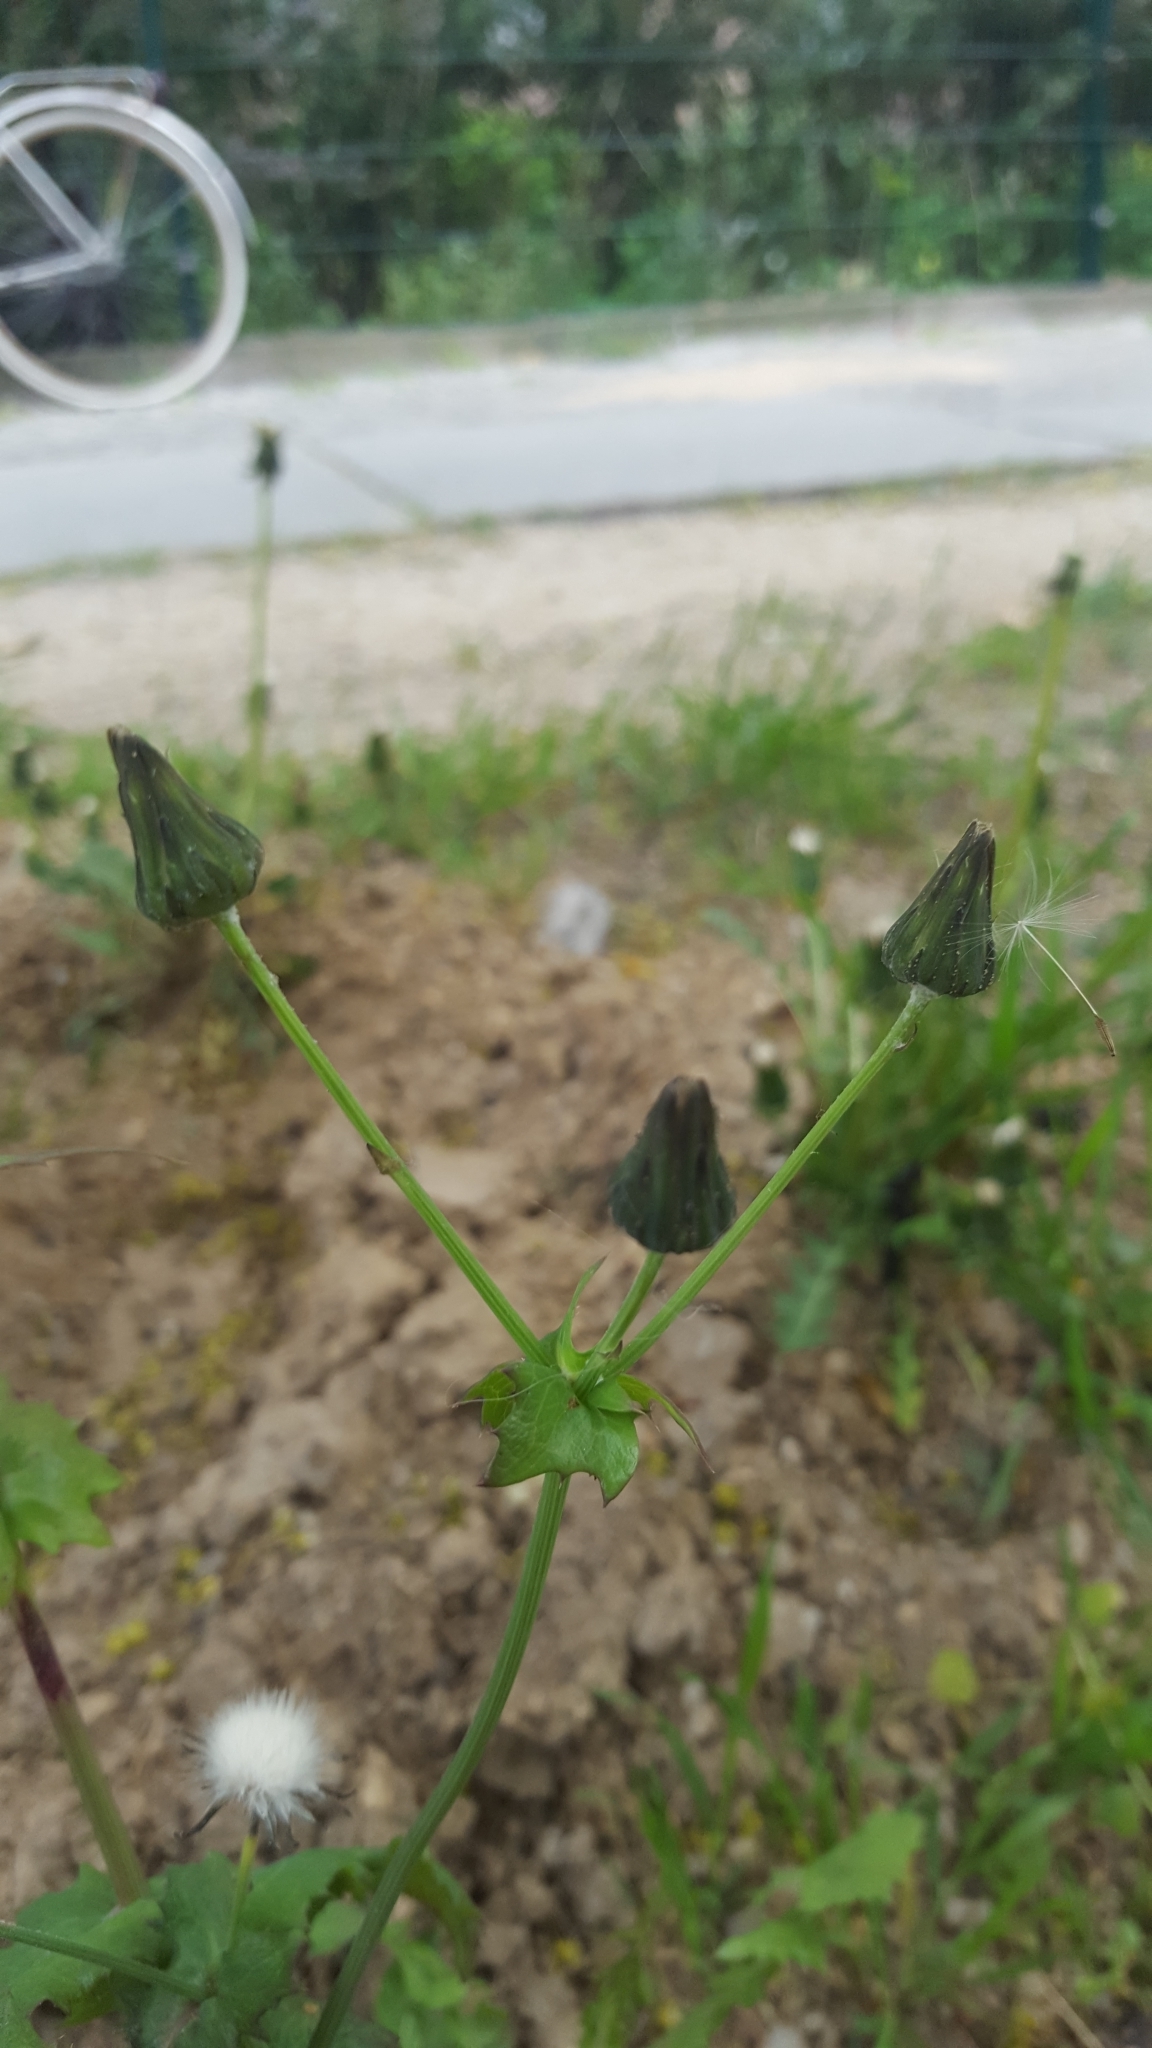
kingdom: Plantae
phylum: Tracheophyta
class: Magnoliopsida
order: Asterales
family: Asteraceae
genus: Sonchus
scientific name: Sonchus oleraceus
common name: Common sowthistle
